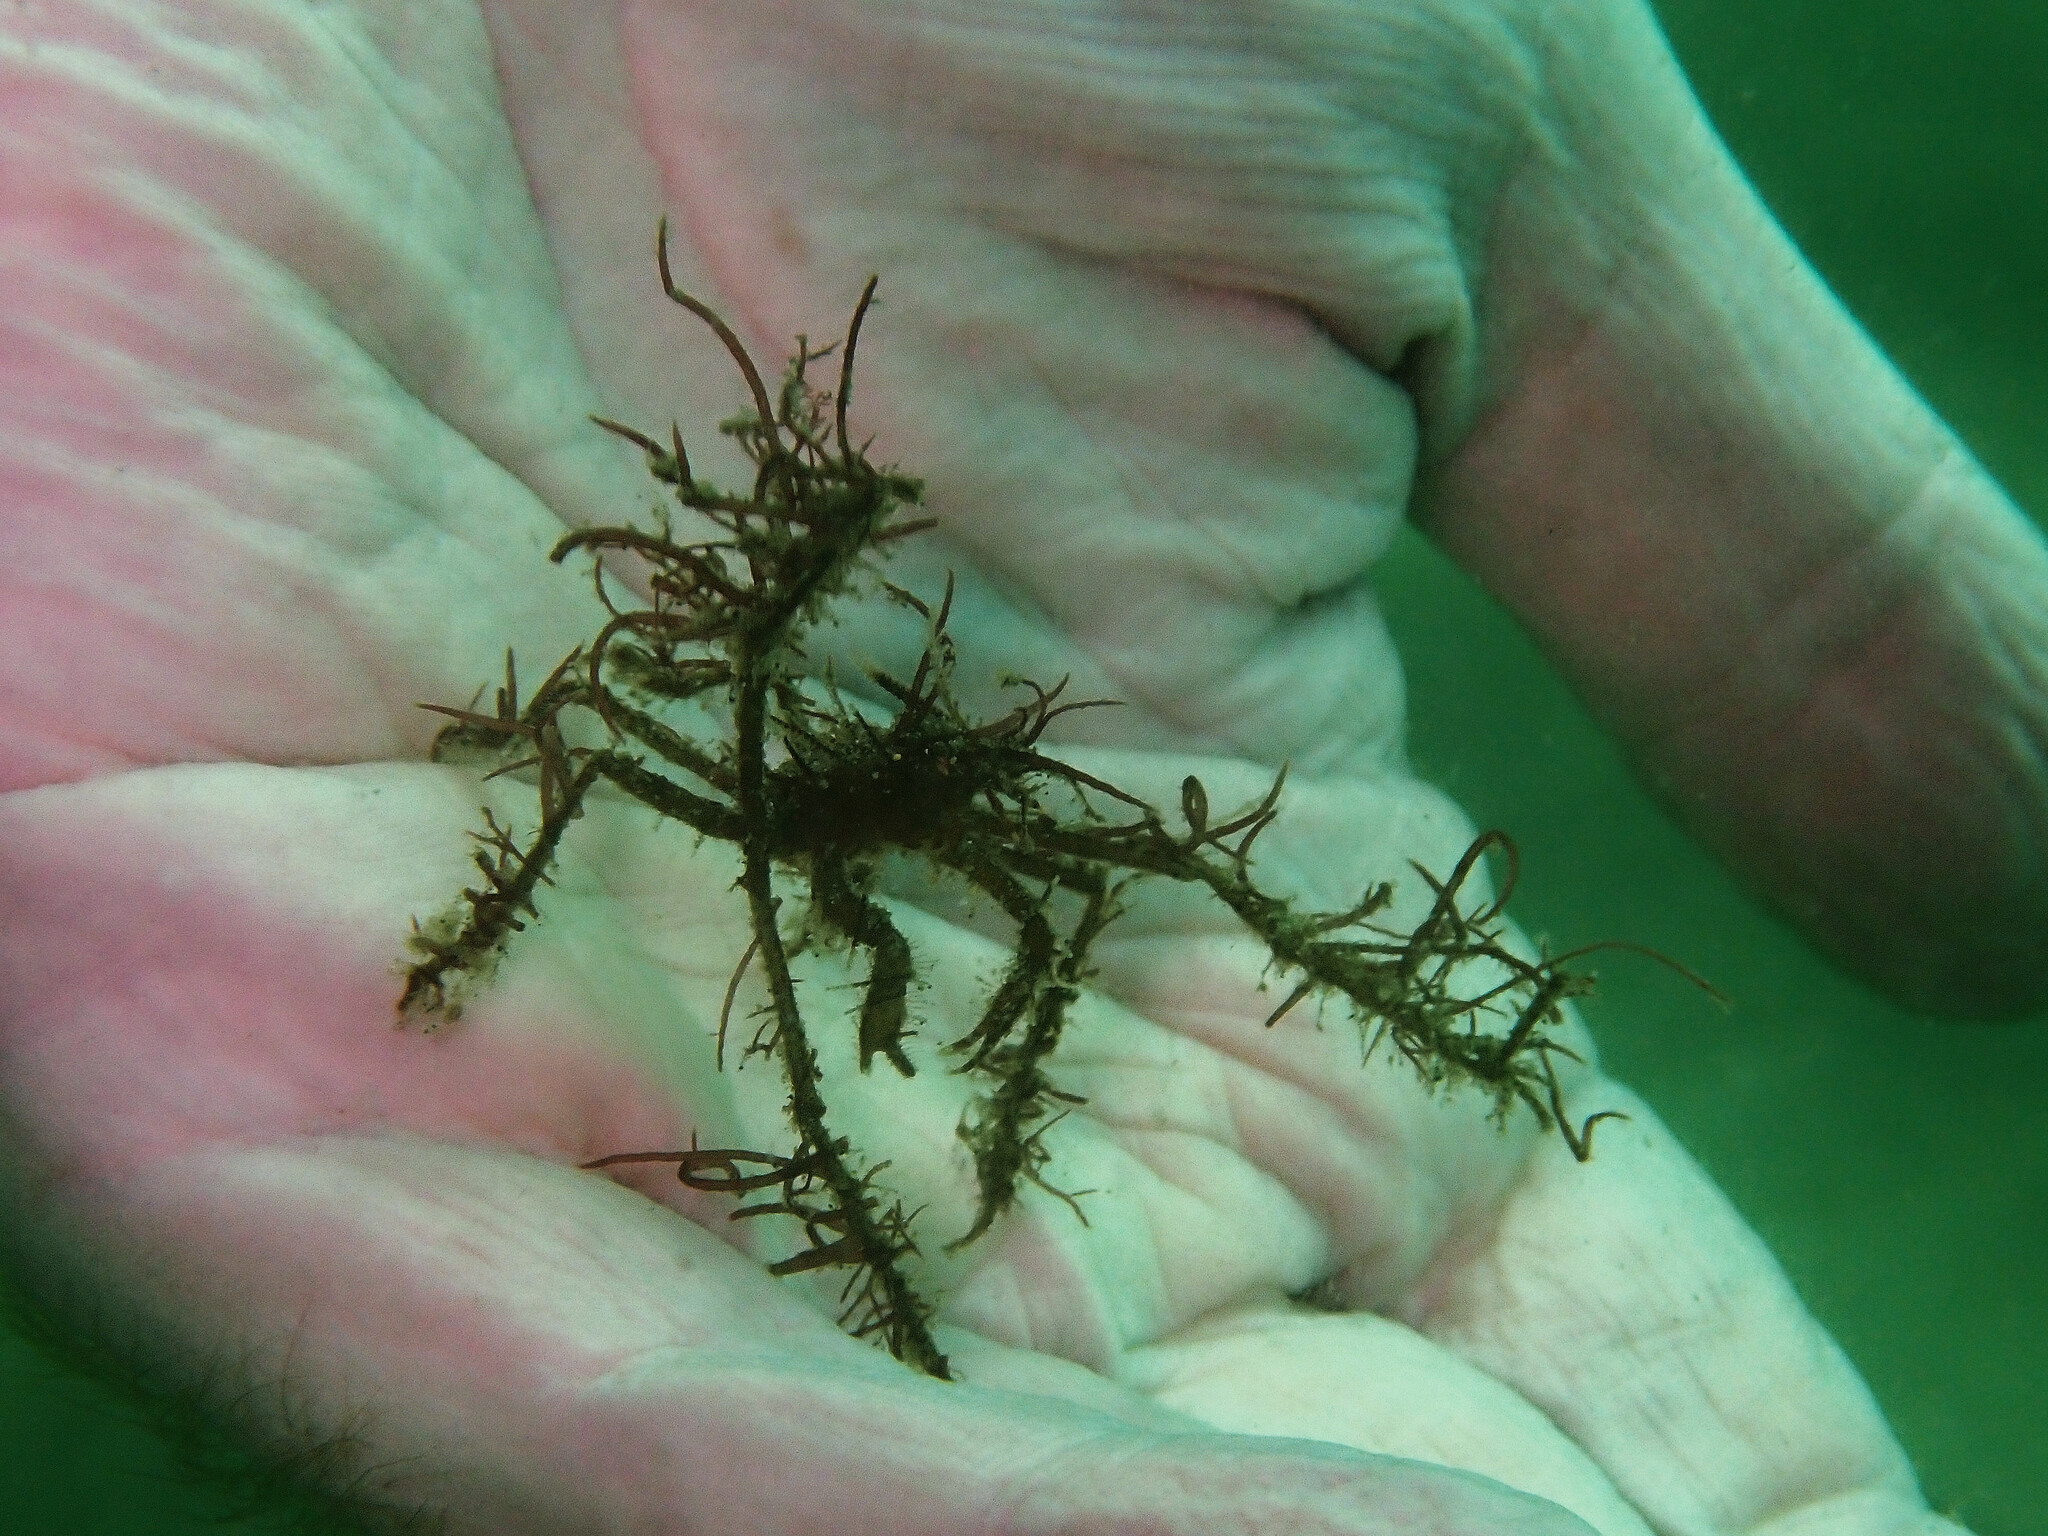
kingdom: Animalia
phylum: Arthropoda
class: Malacostraca
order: Decapoda
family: Inachidae
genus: Ericerodes
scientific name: Ericerodes hemphillii
